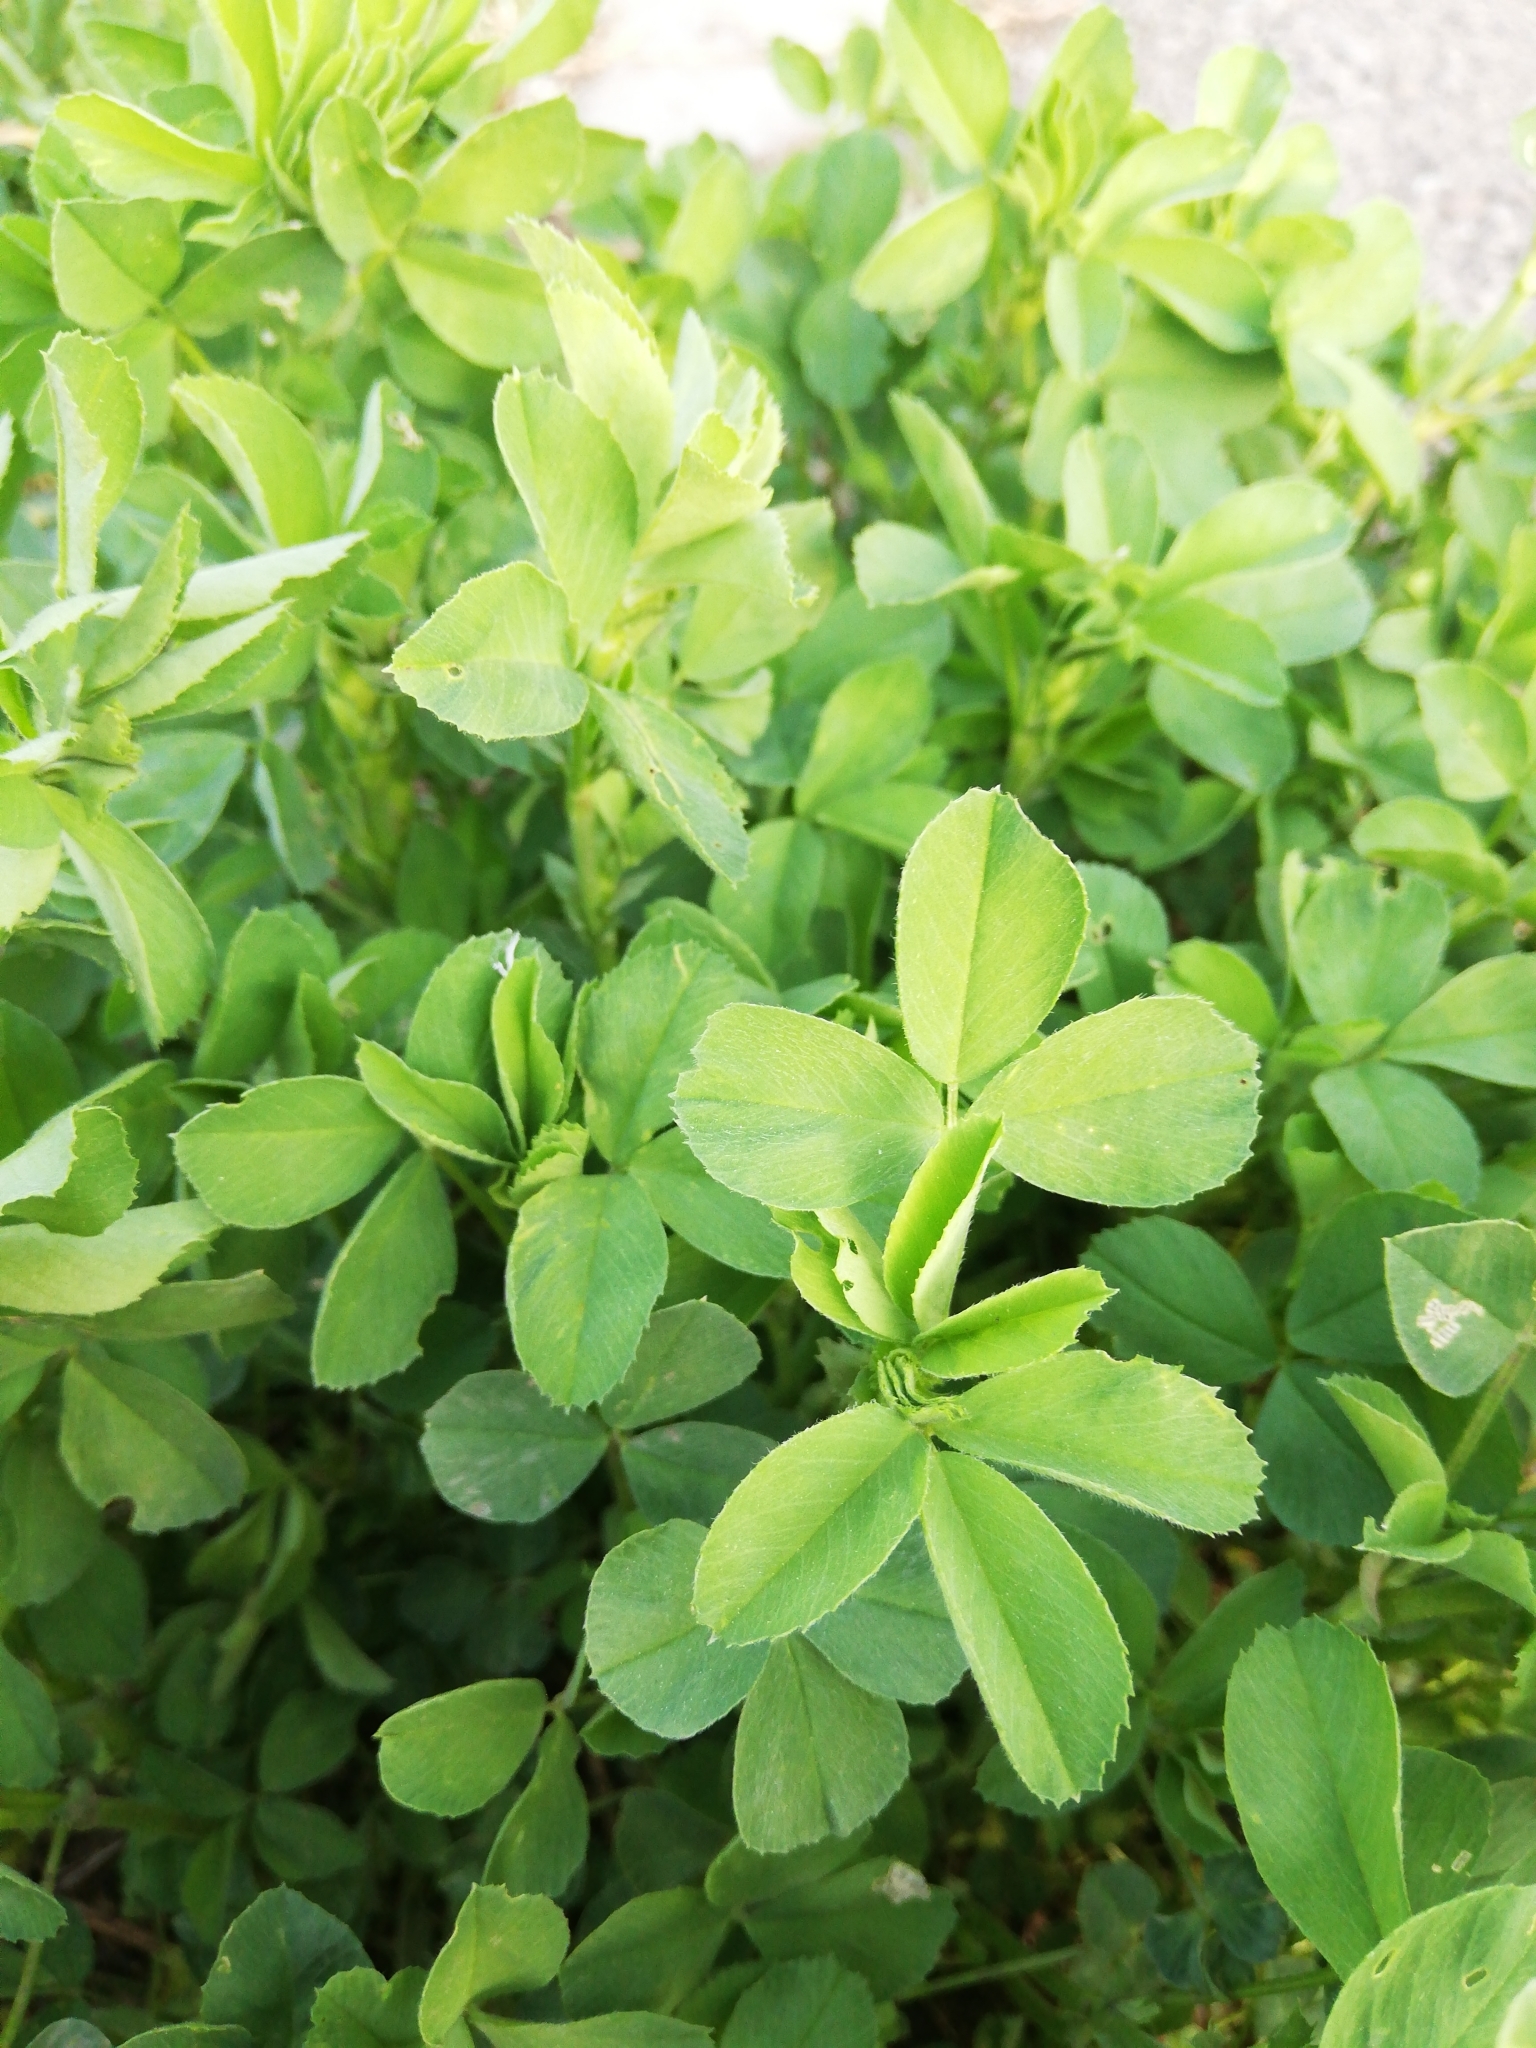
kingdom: Plantae
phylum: Tracheophyta
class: Magnoliopsida
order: Fabales
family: Fabaceae
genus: Medicago
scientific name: Medicago lupulina
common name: Black medick
